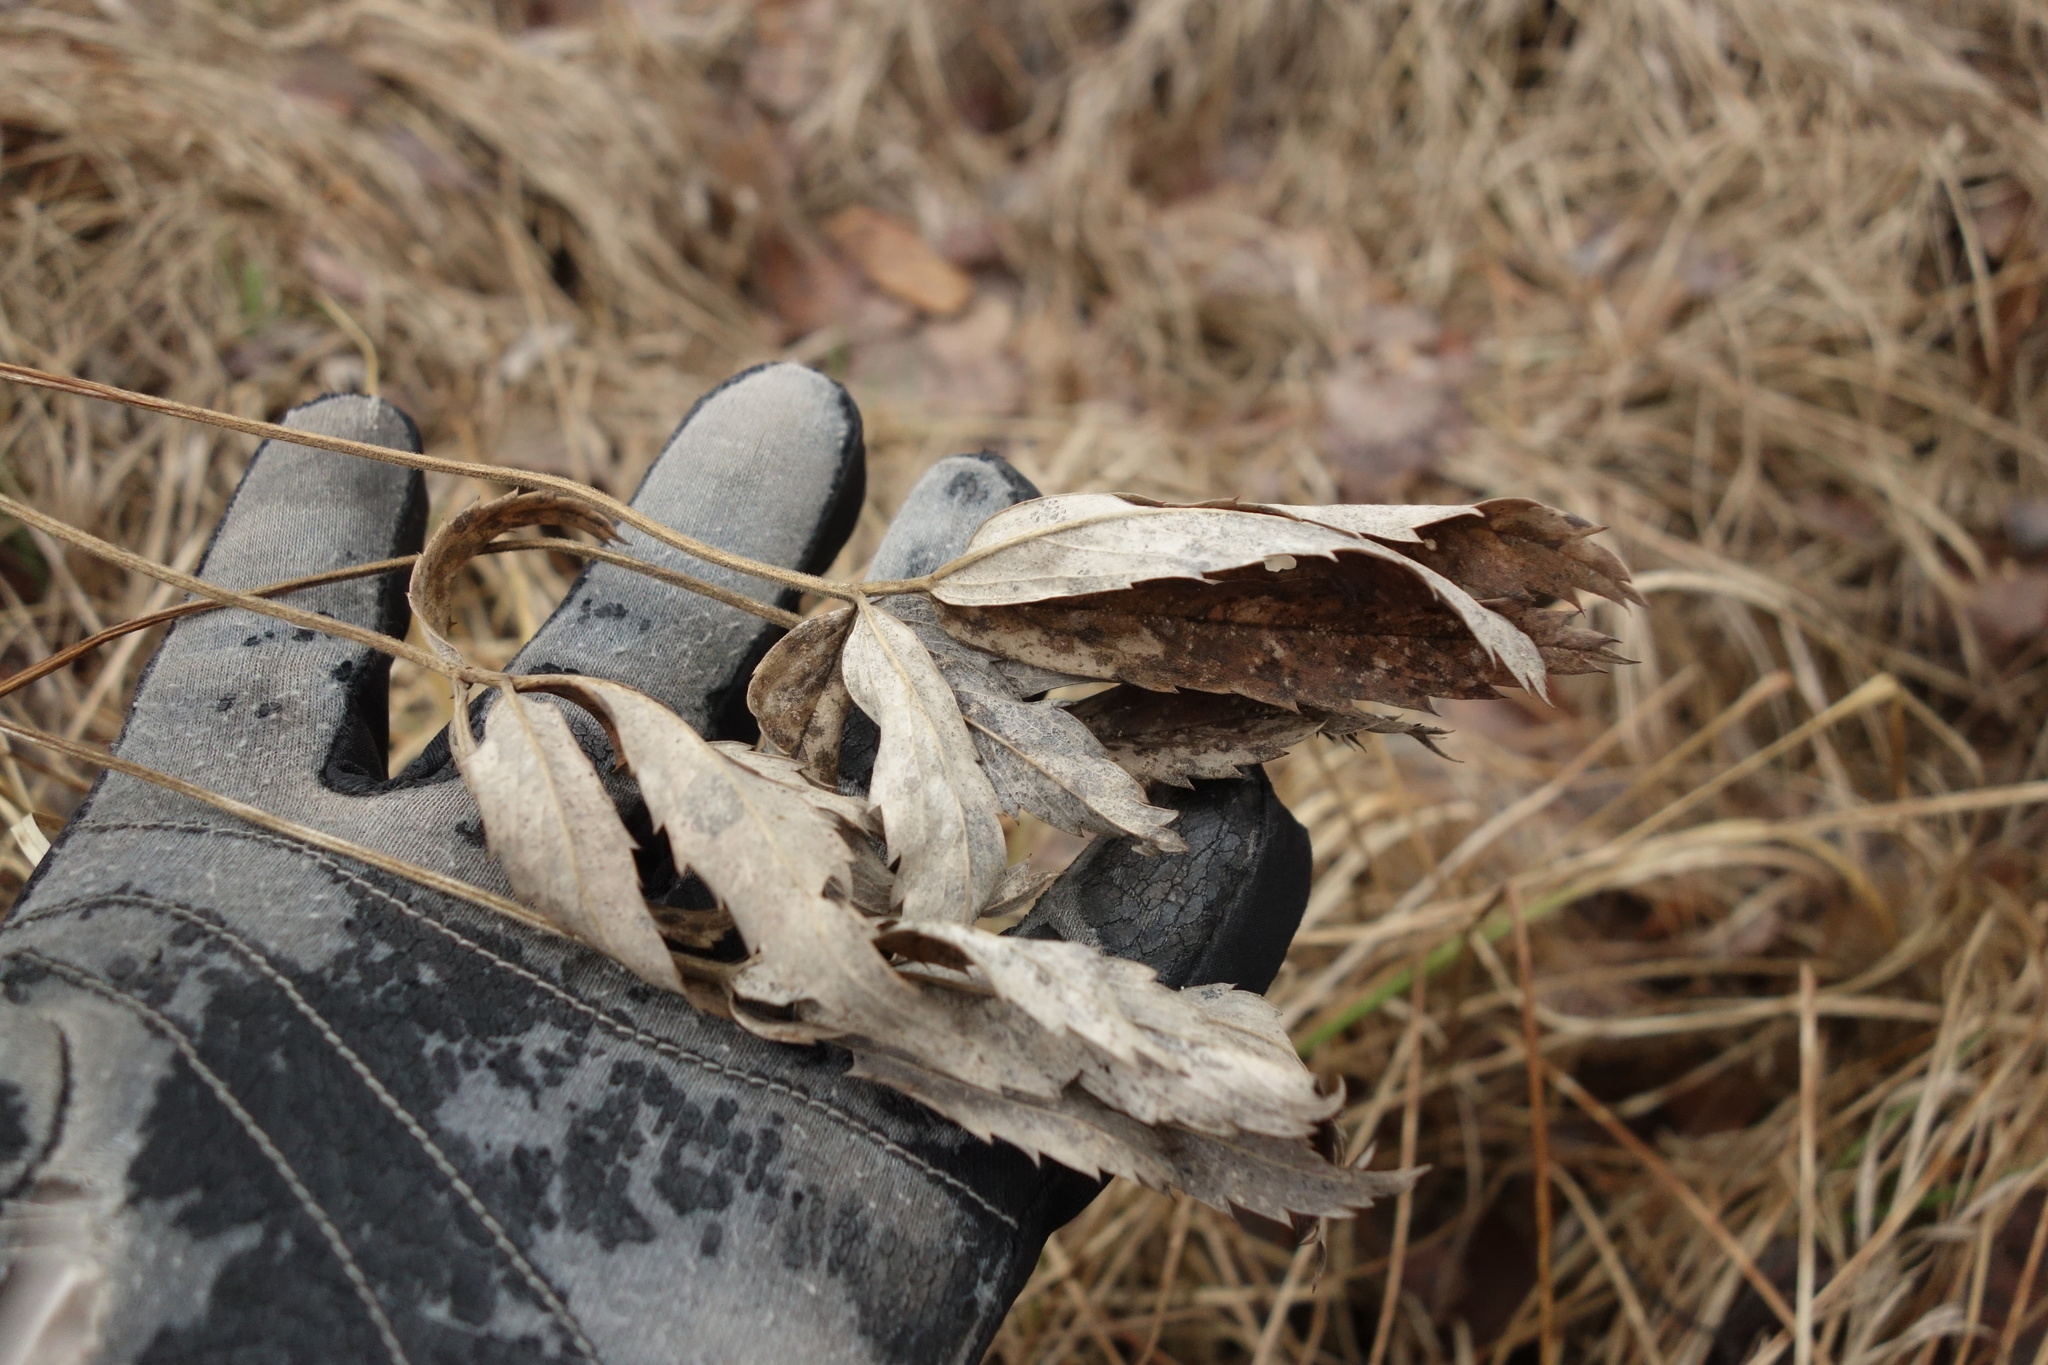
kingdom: Plantae
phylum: Tracheophyta
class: Magnoliopsida
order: Rosales
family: Rosaceae
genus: Comarum
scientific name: Comarum palustre
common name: Marsh cinquefoil
